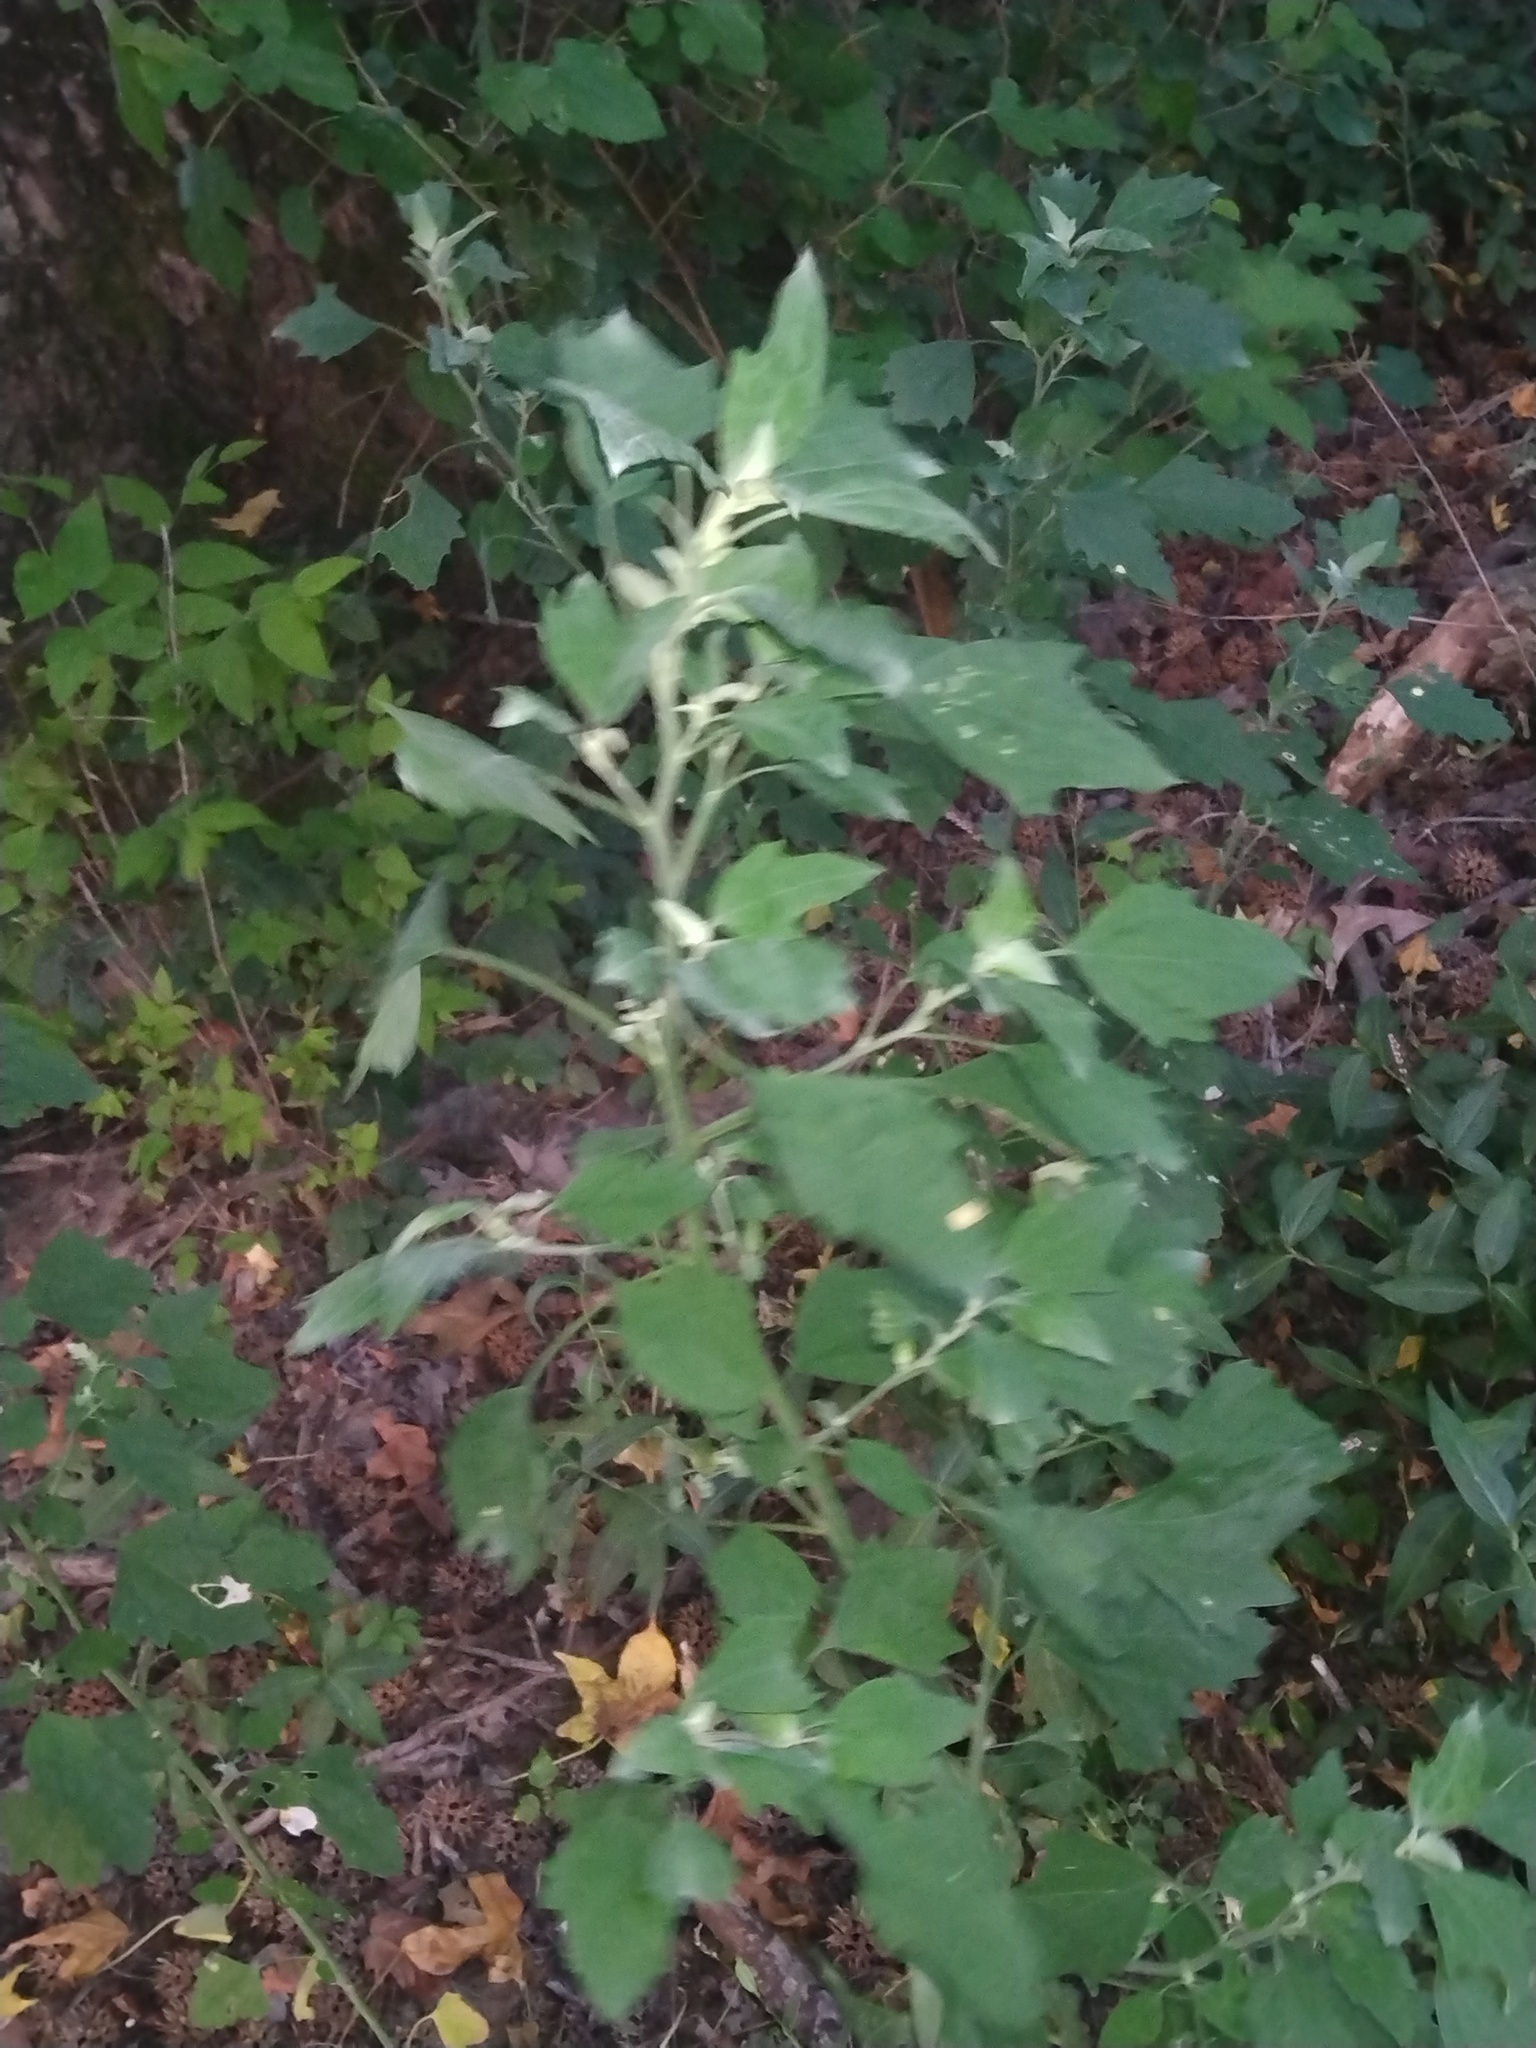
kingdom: Plantae
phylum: Tracheophyta
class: Magnoliopsida
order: Caryophyllales
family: Amaranthaceae
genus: Chenopodium
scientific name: Chenopodium album
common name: Fat-hen
